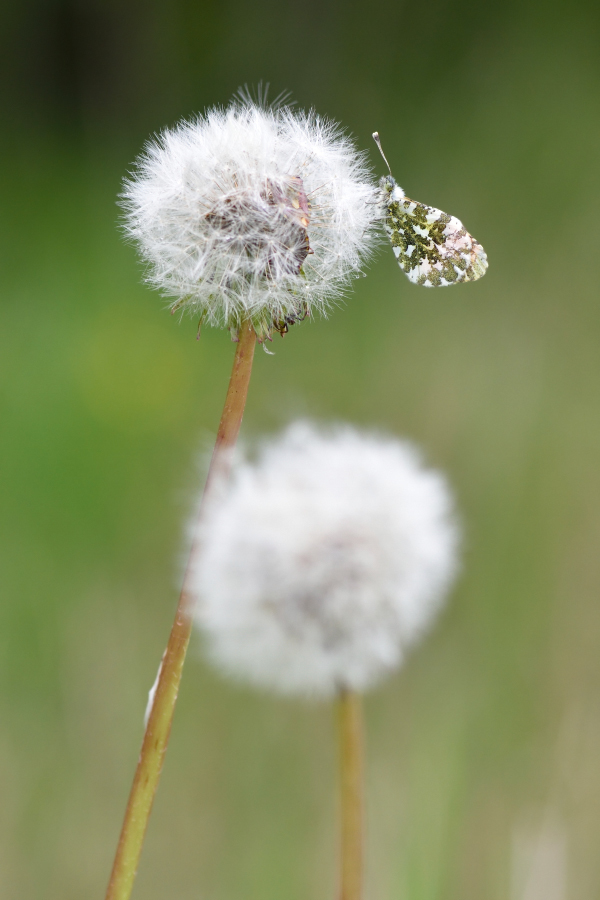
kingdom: Animalia
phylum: Arthropoda
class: Insecta
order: Lepidoptera
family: Pieridae
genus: Anthocharis
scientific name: Anthocharis cardamines
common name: Orange-tip
